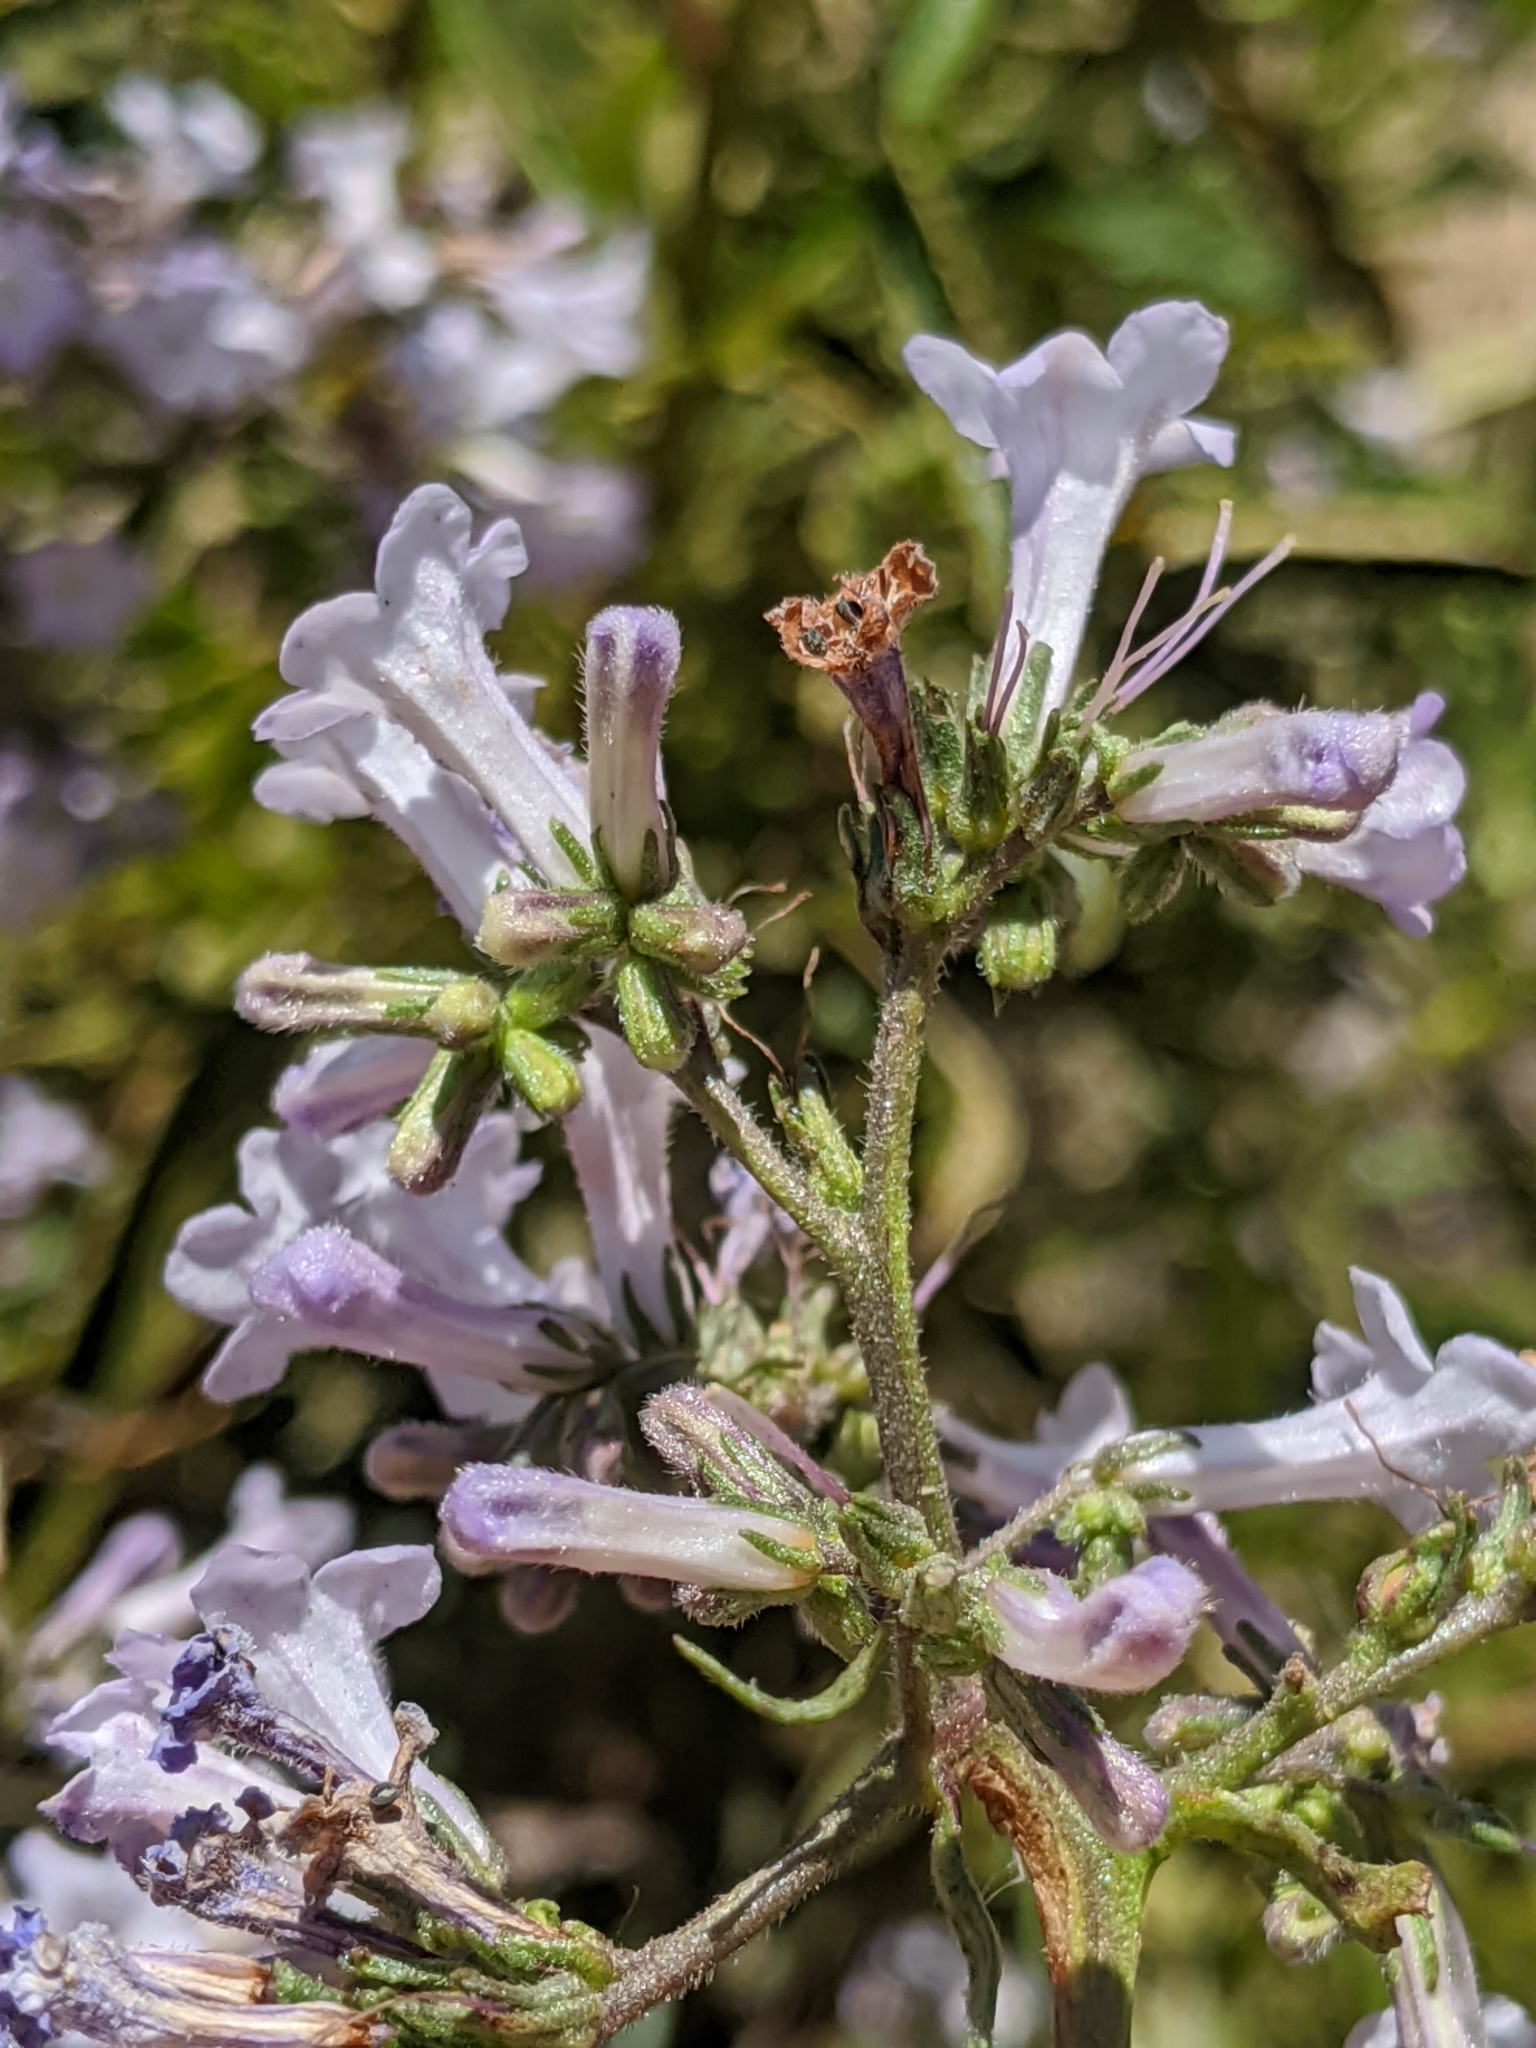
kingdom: Plantae
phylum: Tracheophyta
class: Magnoliopsida
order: Boraginales
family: Namaceae
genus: Eriodictyon
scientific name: Eriodictyon californicum
